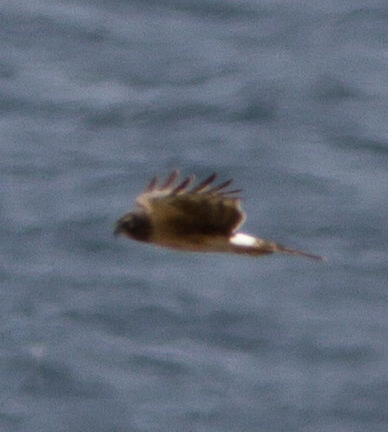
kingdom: Animalia
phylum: Chordata
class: Aves
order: Accipitriformes
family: Accipitridae
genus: Circus
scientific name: Circus cyaneus
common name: Hen harrier
